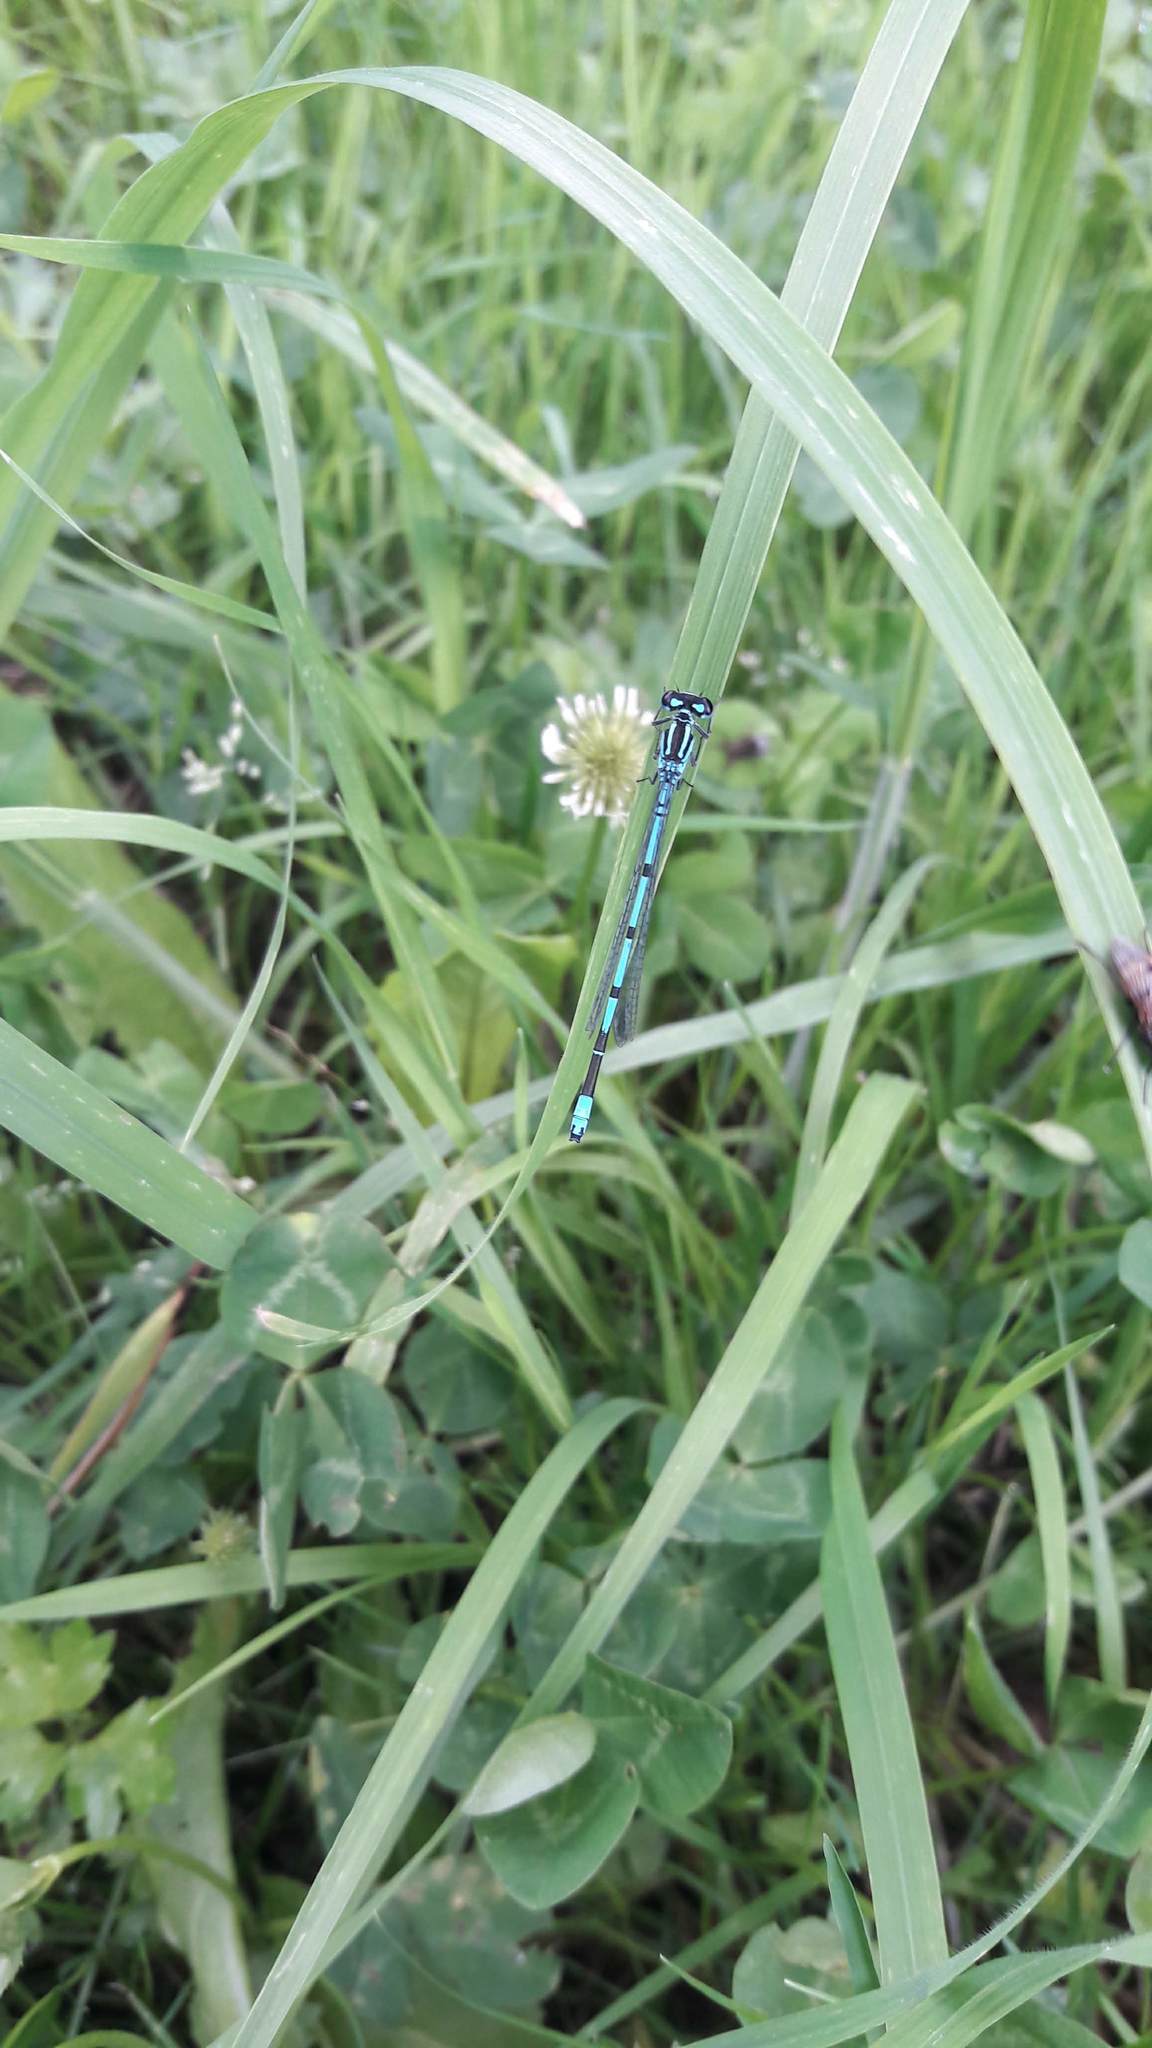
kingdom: Animalia
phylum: Arthropoda
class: Insecta
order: Odonata
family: Coenagrionidae
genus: Coenagrion
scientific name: Coenagrion puella
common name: Azure damselfly
